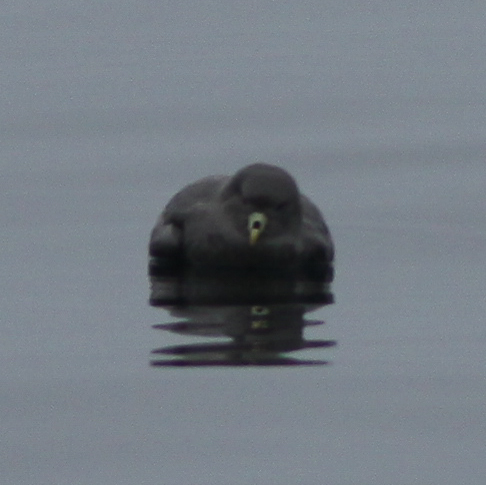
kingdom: Animalia
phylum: Chordata
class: Aves
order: Procellariiformes
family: Procellariidae
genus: Fulmarus
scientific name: Fulmarus glacialis
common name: Northern fulmar
